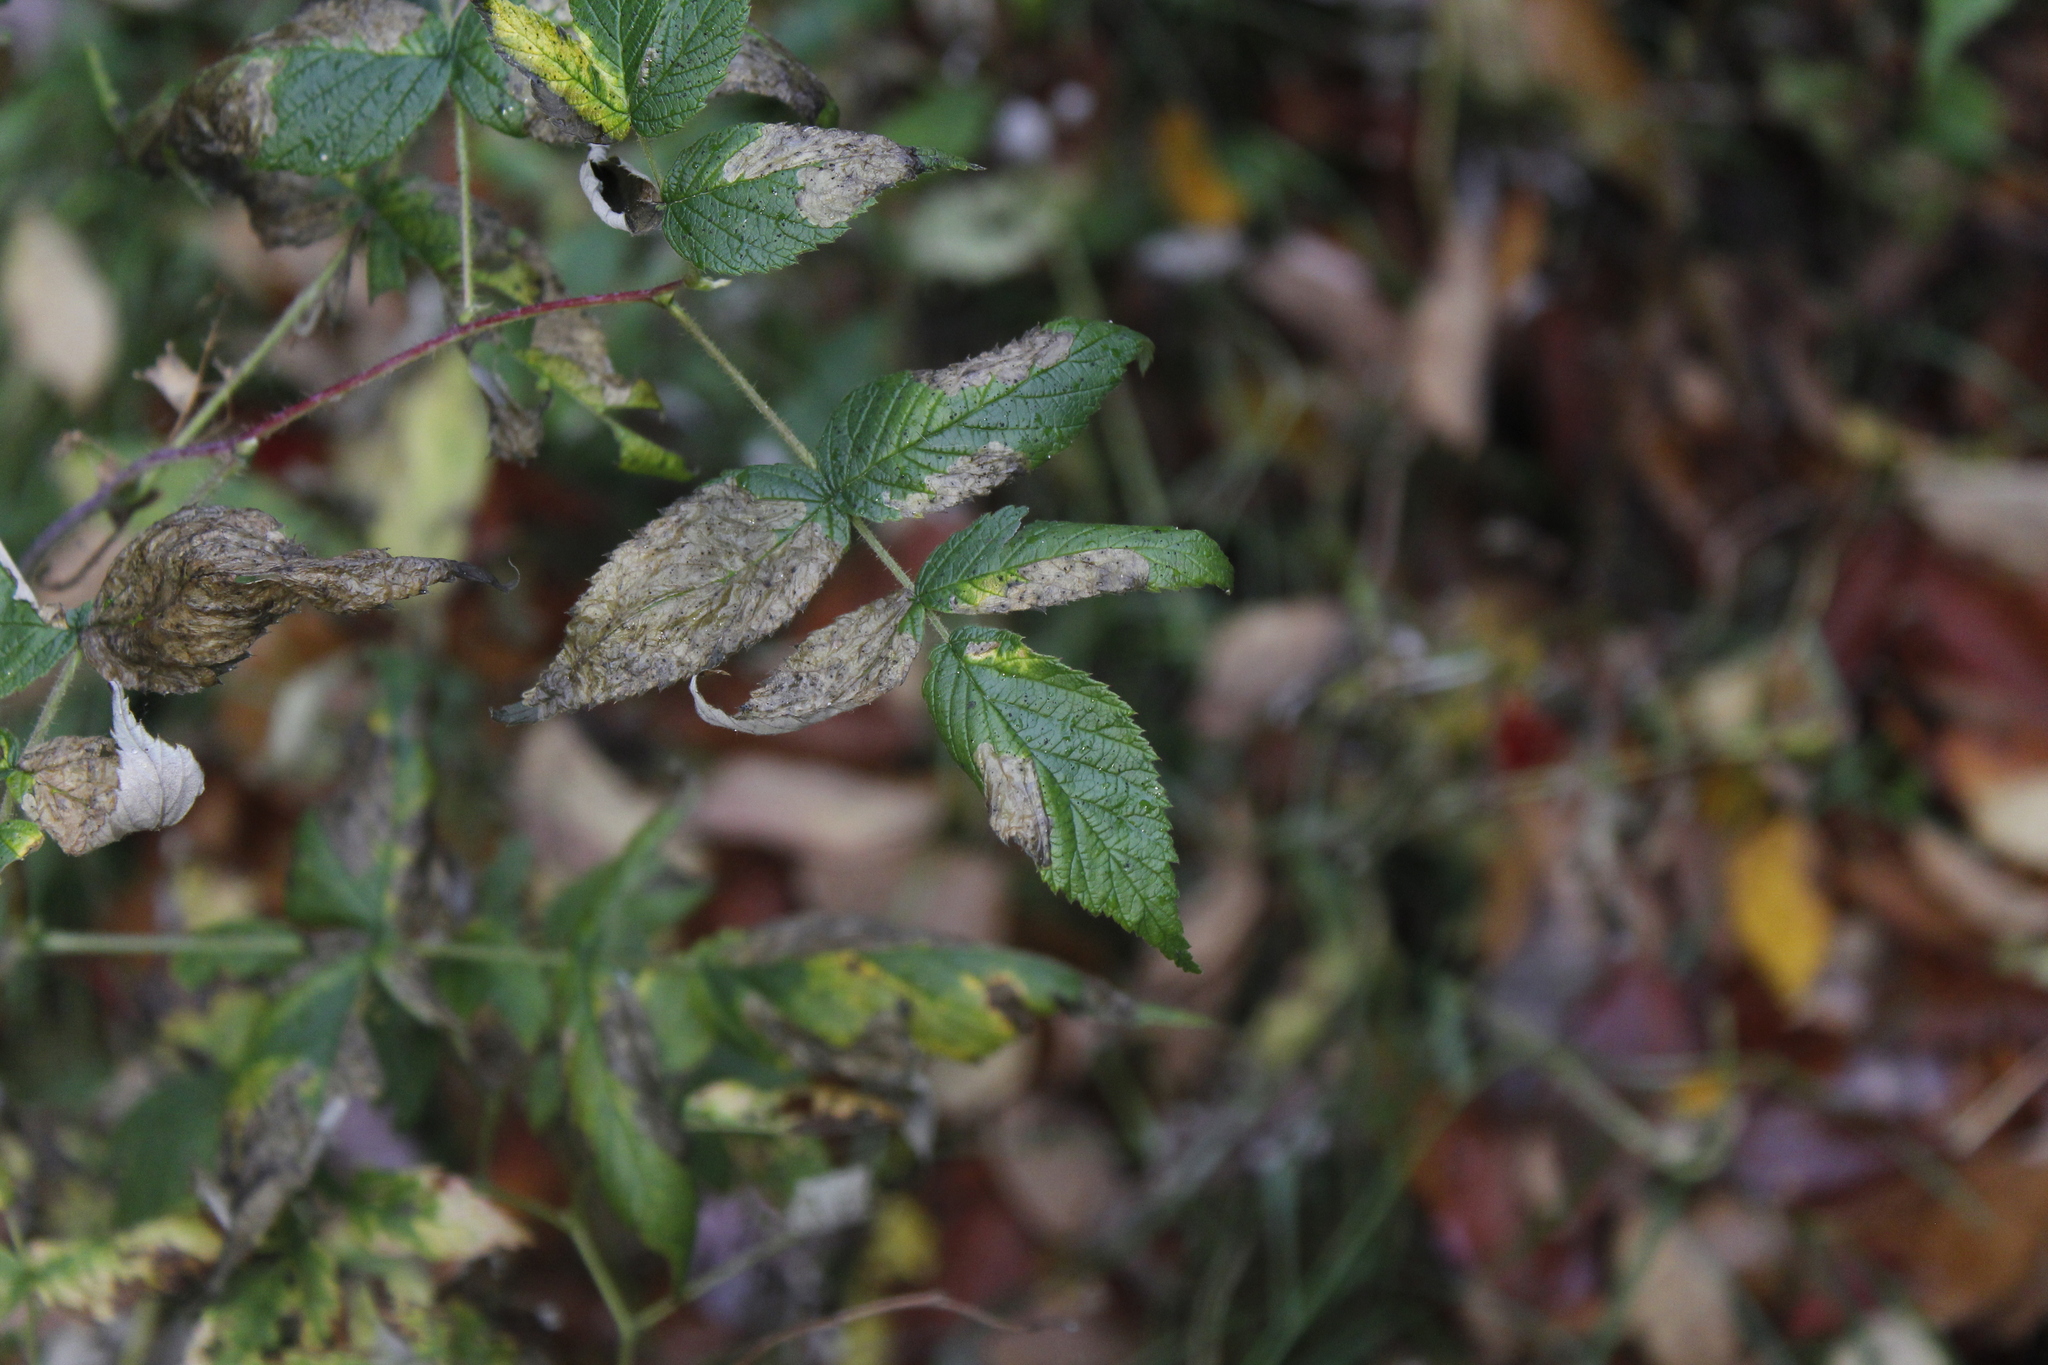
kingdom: Animalia
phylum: Arthropoda
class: Insecta
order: Hymenoptera
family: Tenthredinidae
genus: Metallus
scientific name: Metallus capitalis
